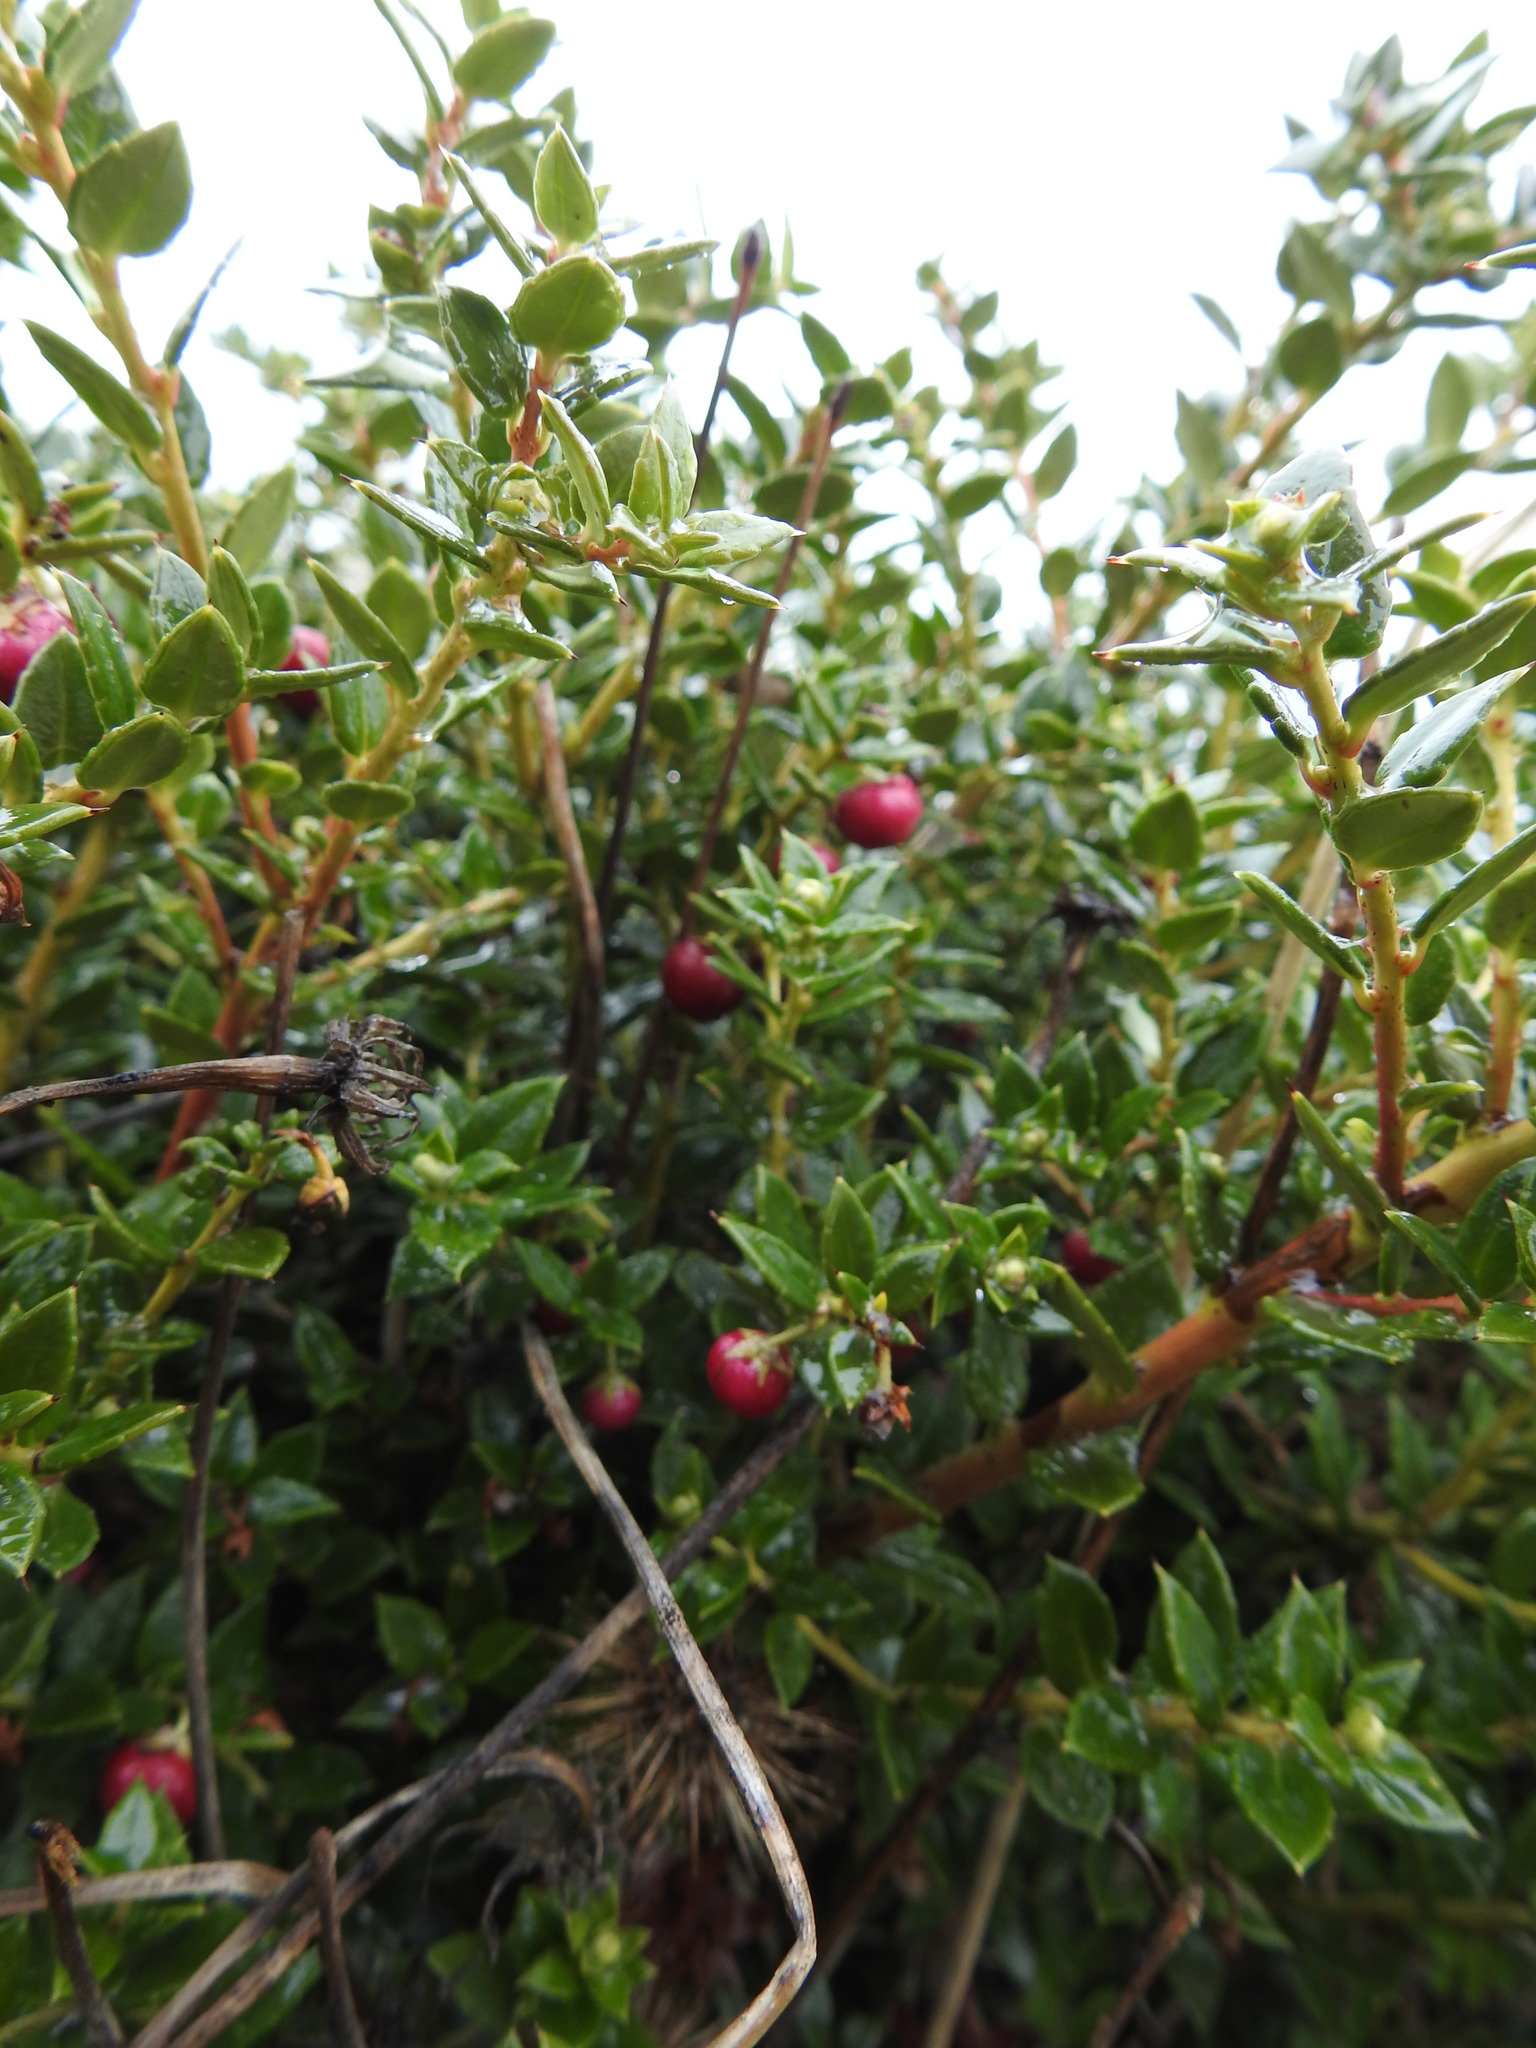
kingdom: Plantae
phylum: Tracheophyta
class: Magnoliopsida
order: Ericales
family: Ericaceae
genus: Gaultheria
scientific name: Gaultheria mucronata
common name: Prickly heath
